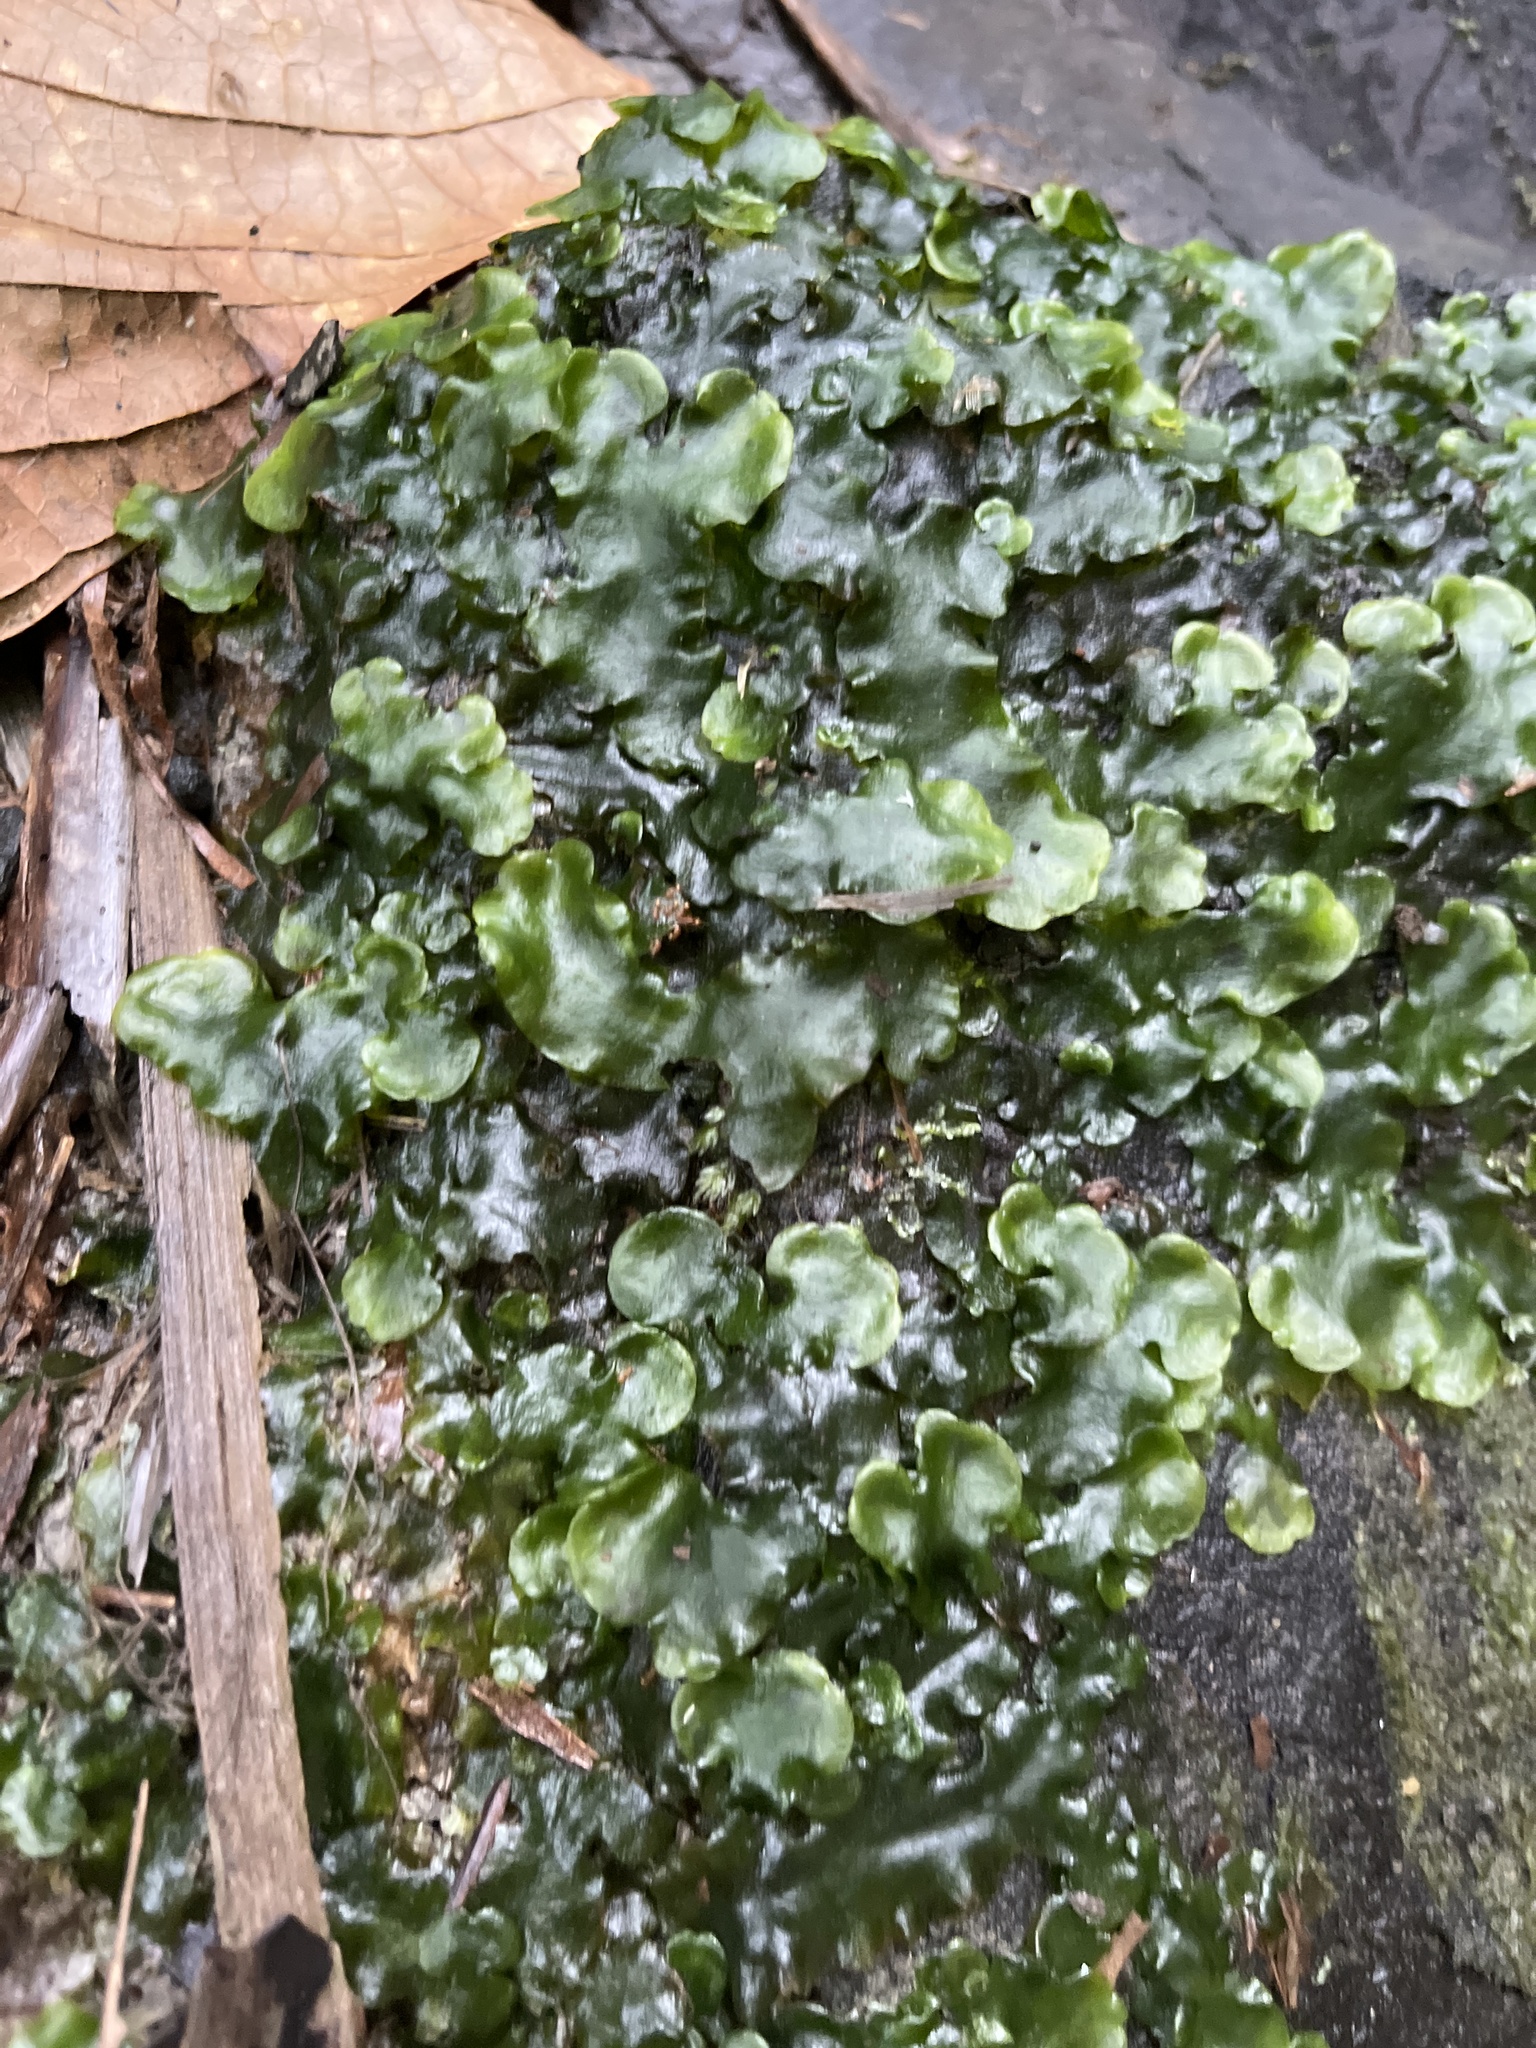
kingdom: Plantae
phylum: Marchantiophyta
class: Marchantiopsida
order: Marchantiales
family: Dumortieraceae
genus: Dumortiera
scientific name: Dumortiera hirsuta
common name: Dumortier's liverwort
